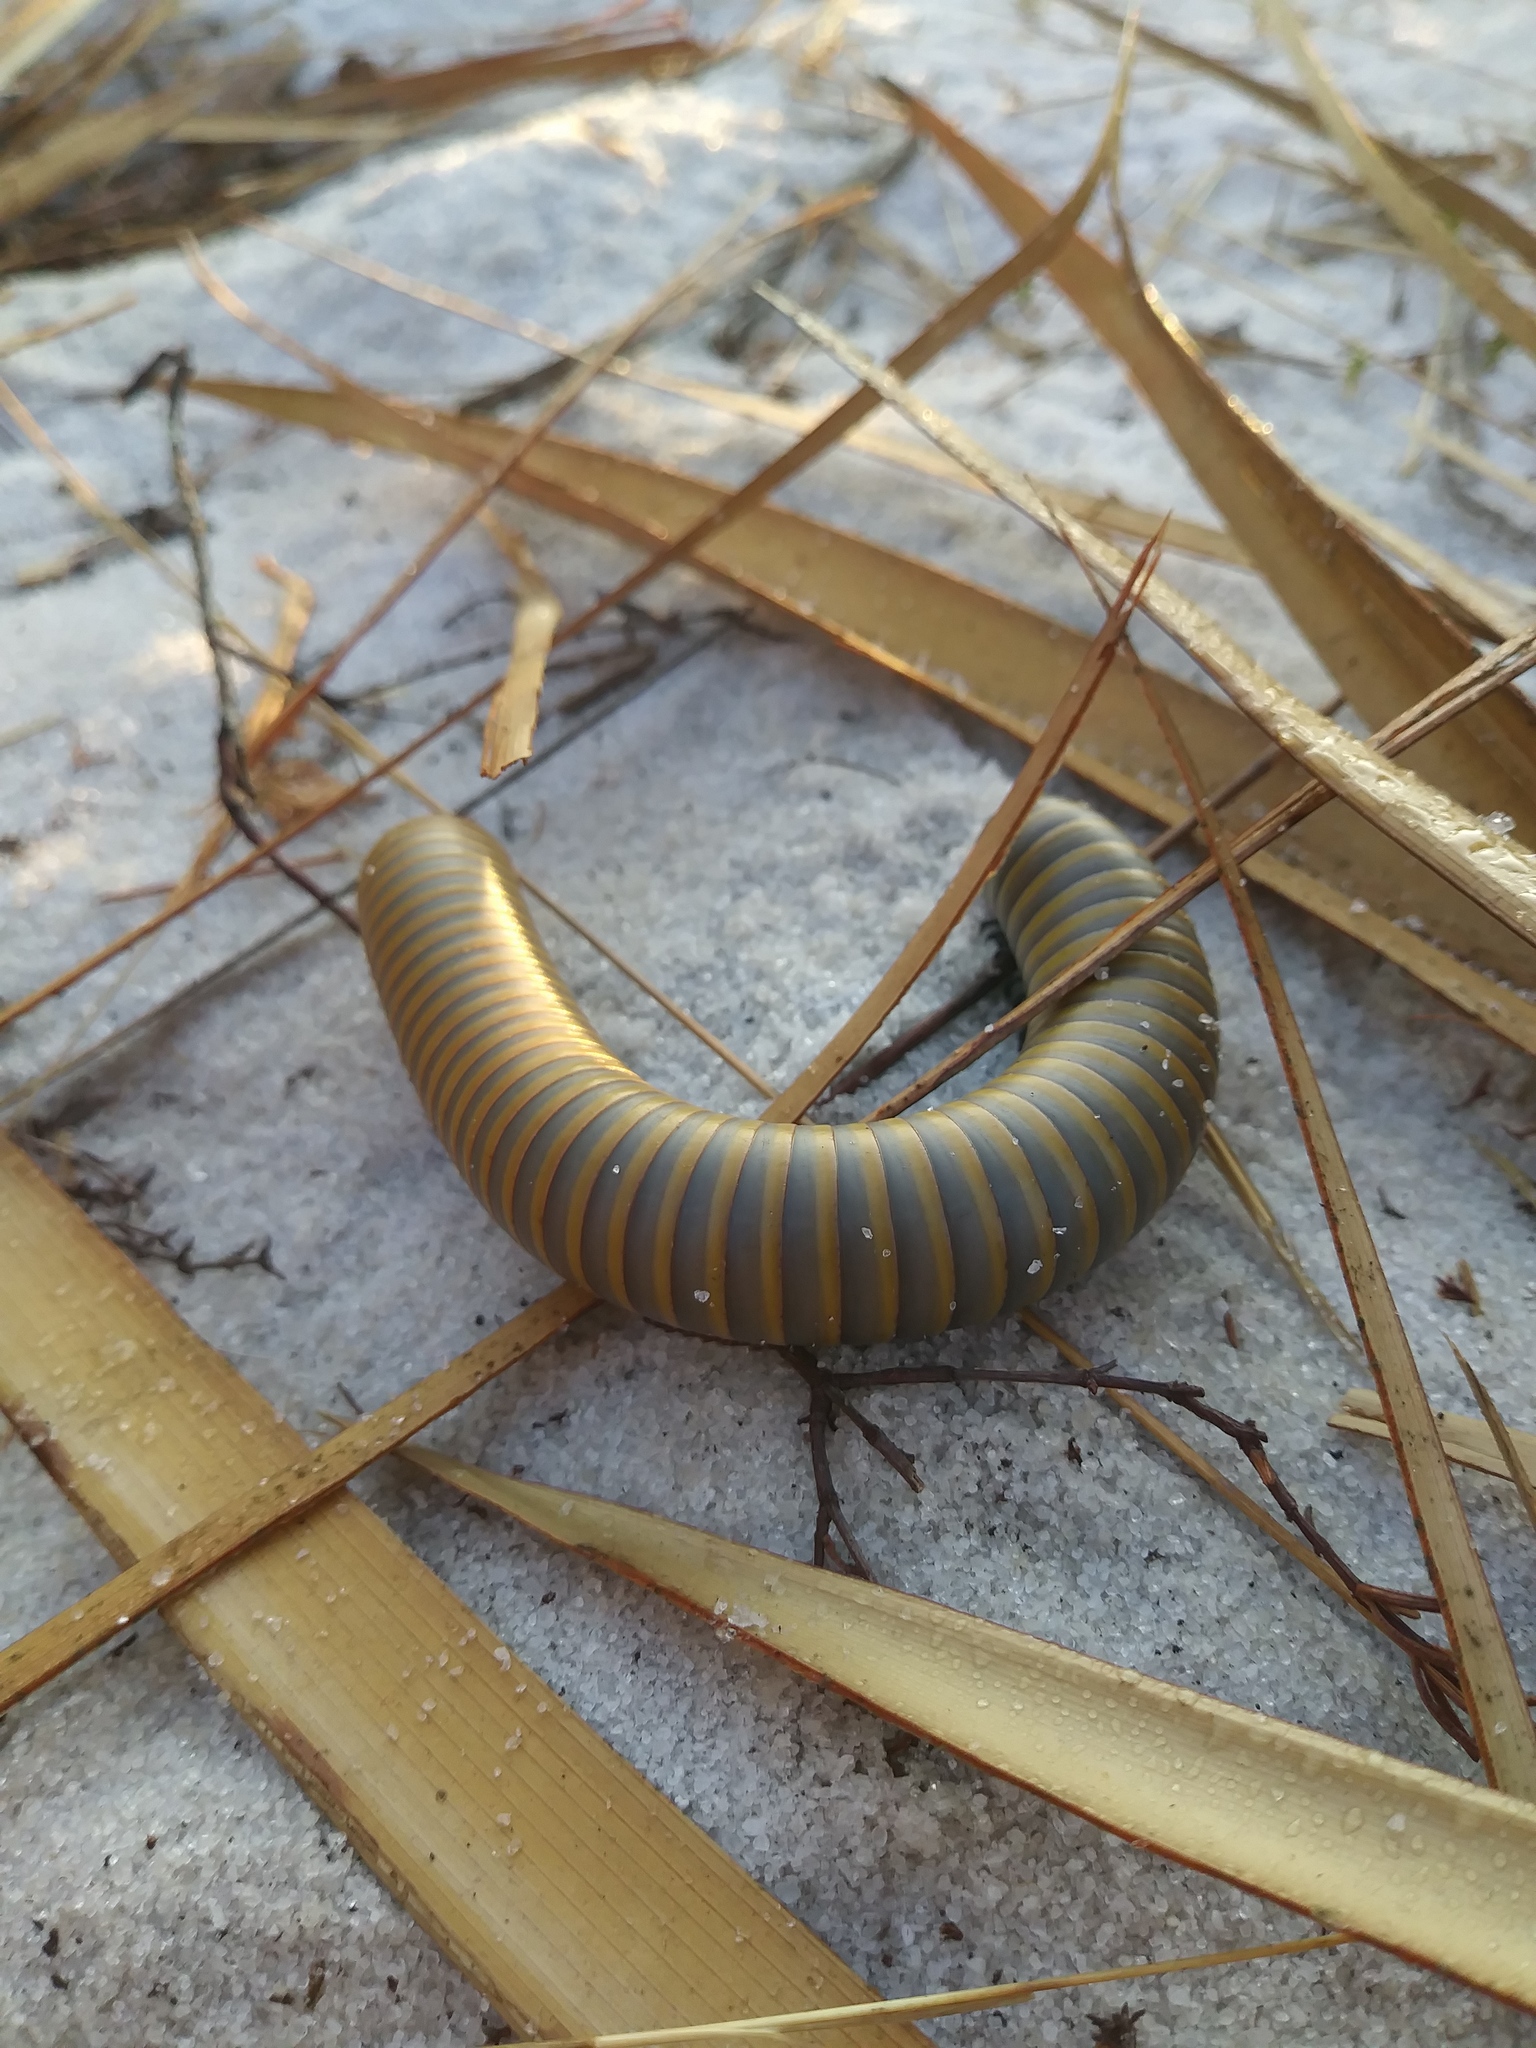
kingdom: Animalia
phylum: Arthropoda
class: Diplopoda
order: Spirobolida
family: Spirobolidae
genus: Narceus
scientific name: Narceus gordanus
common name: Grayish-green millipede
